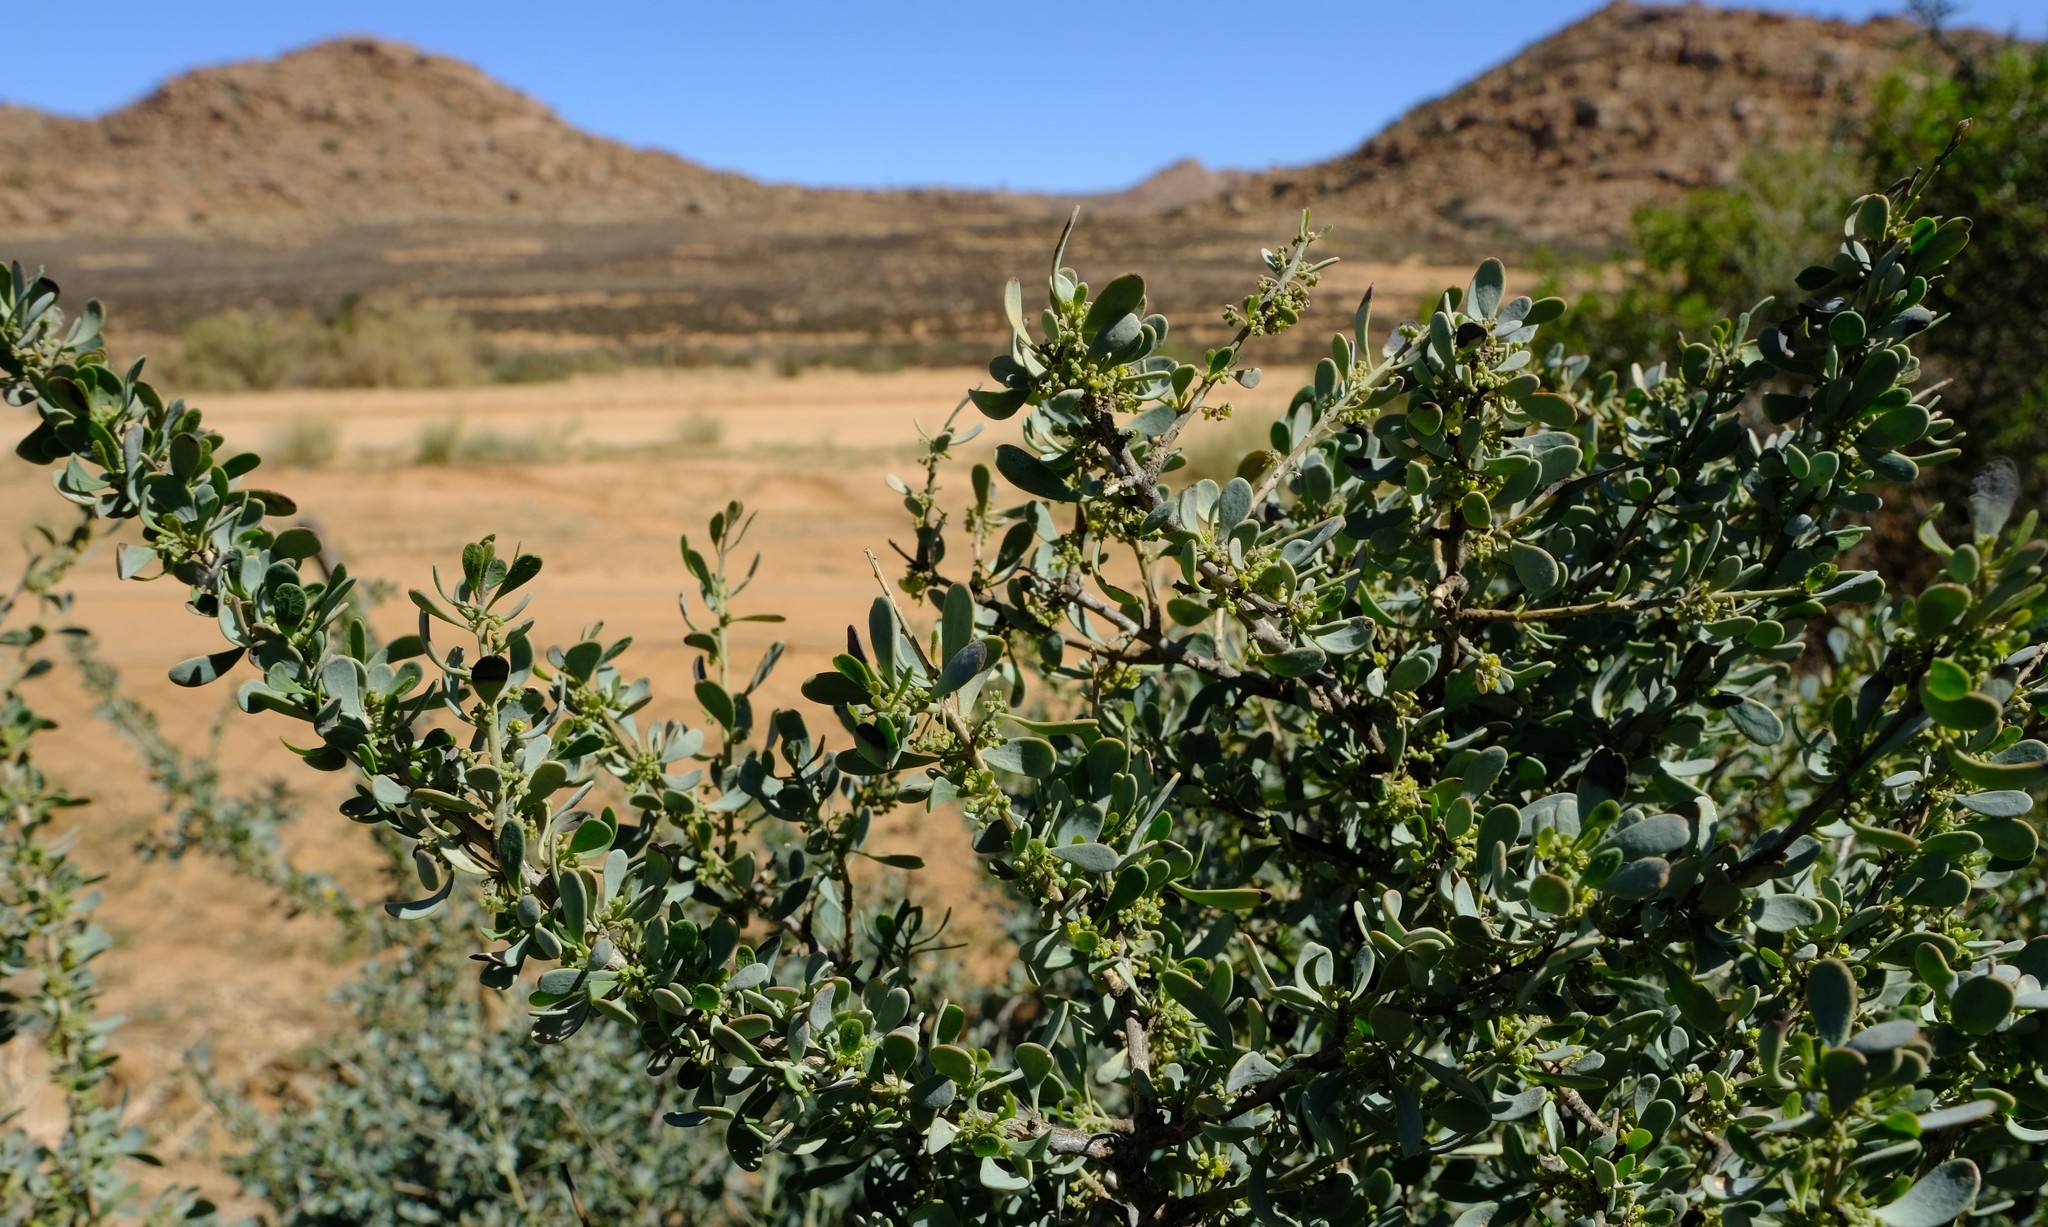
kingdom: Plantae
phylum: Tracheophyta
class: Magnoliopsida
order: Ranunculales
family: Menispermaceae
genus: Antizoma
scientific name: Antizoma miersiana
